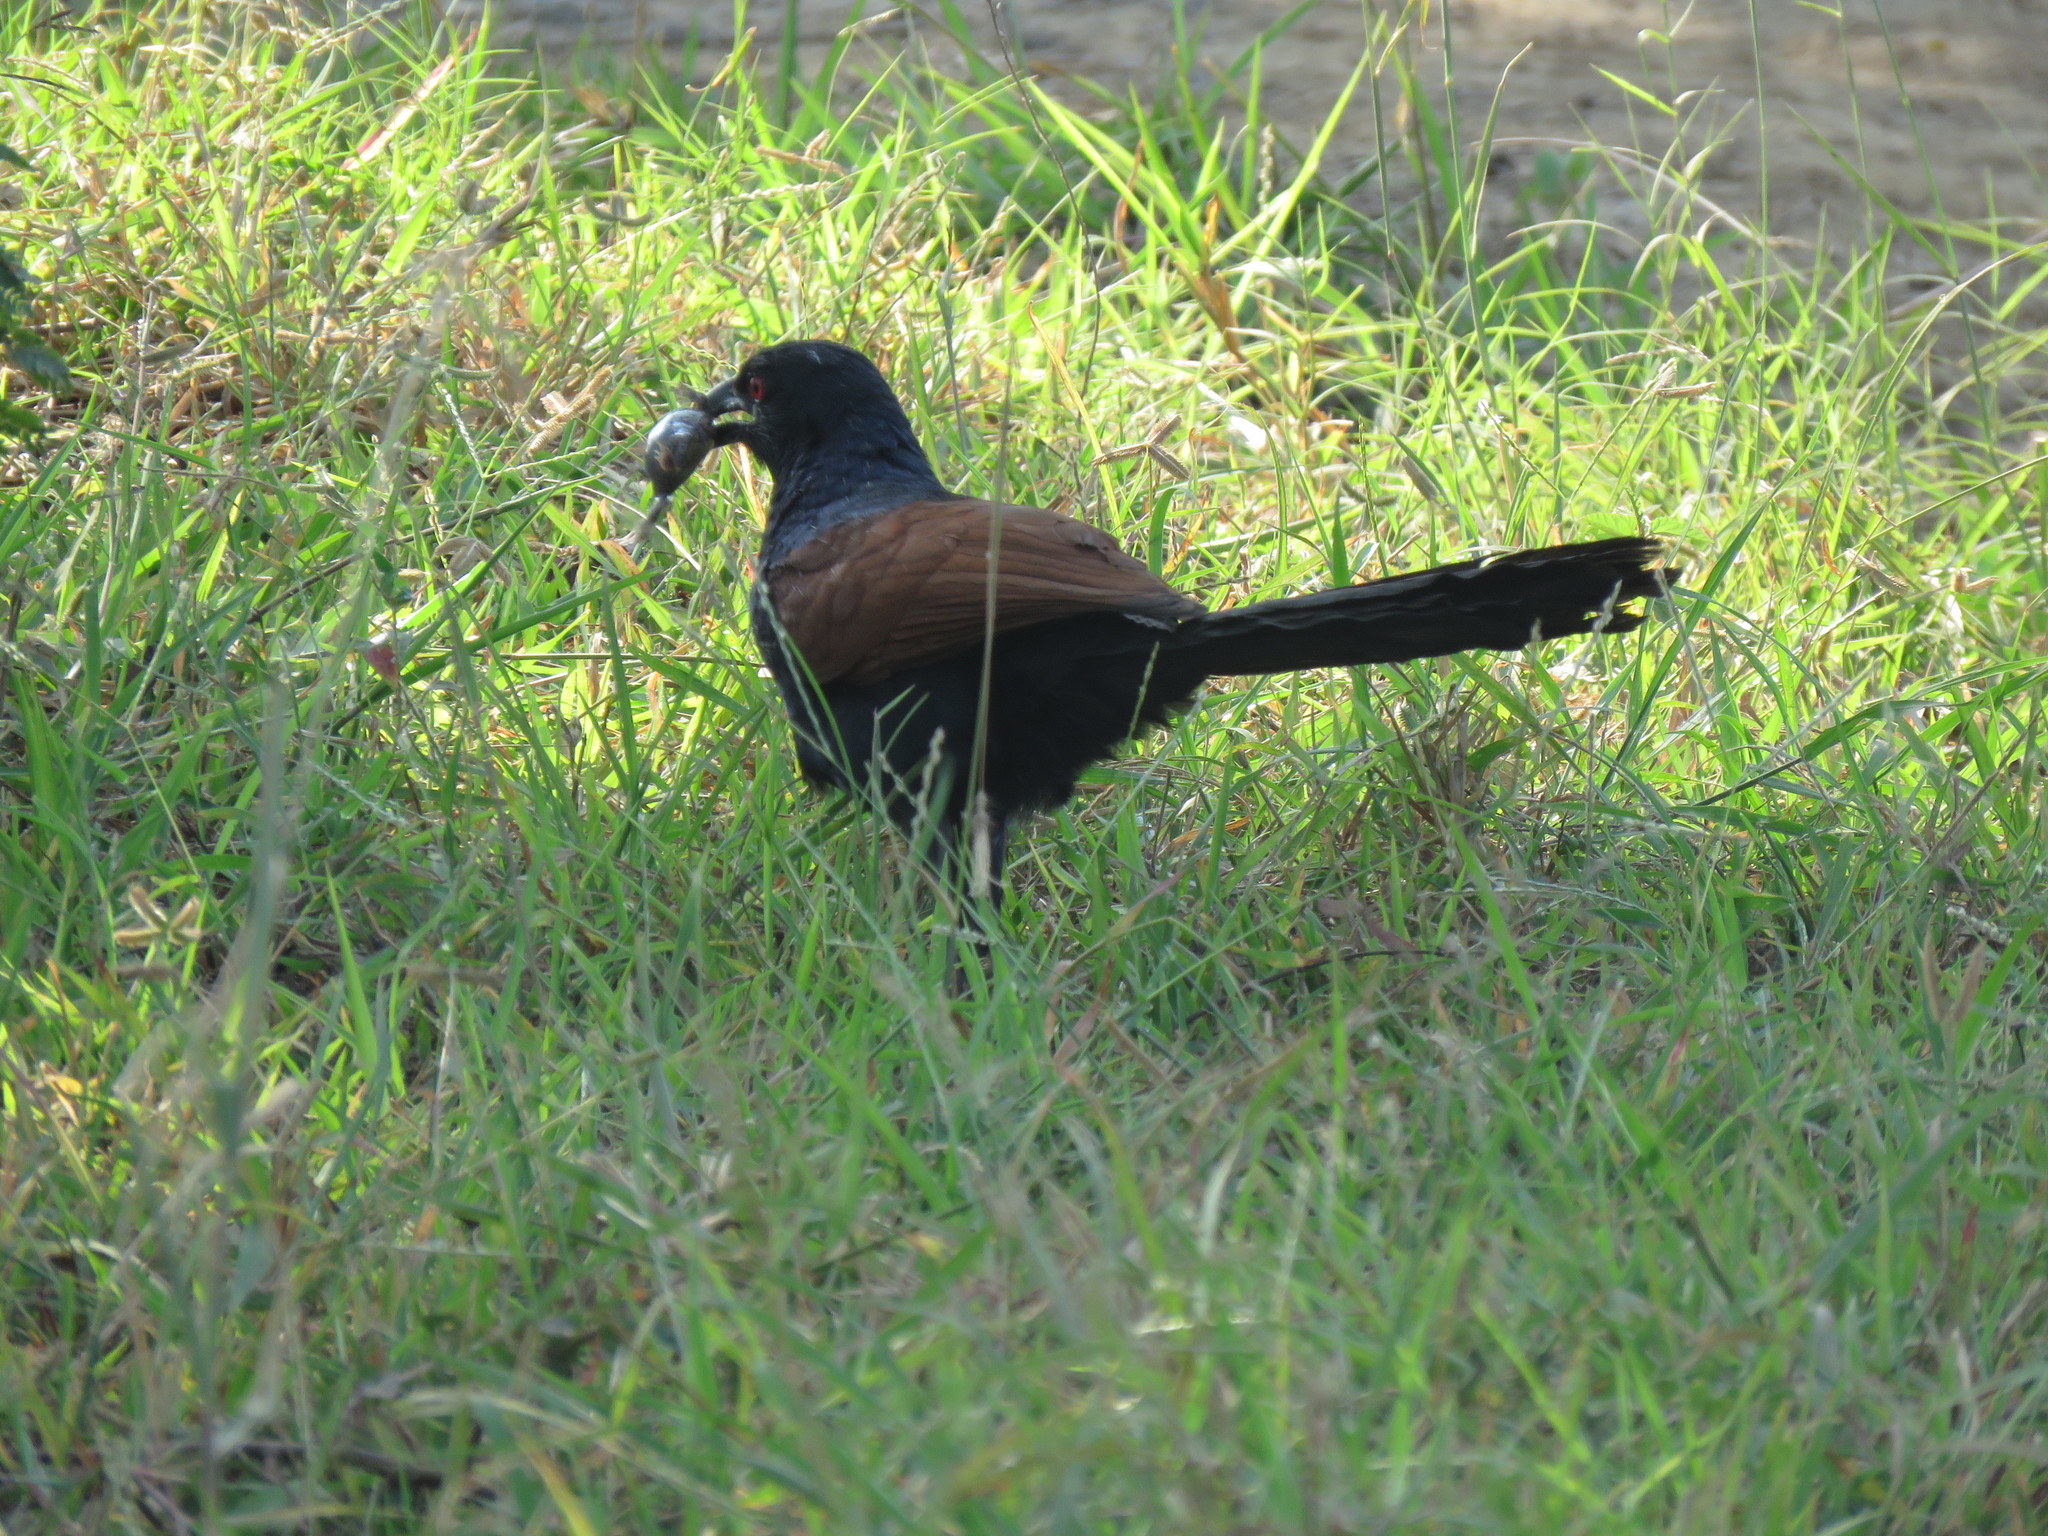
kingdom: Animalia
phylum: Chordata
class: Aves
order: Cuculiformes
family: Cuculidae
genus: Centropus
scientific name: Centropus sinensis
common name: Greater coucal
